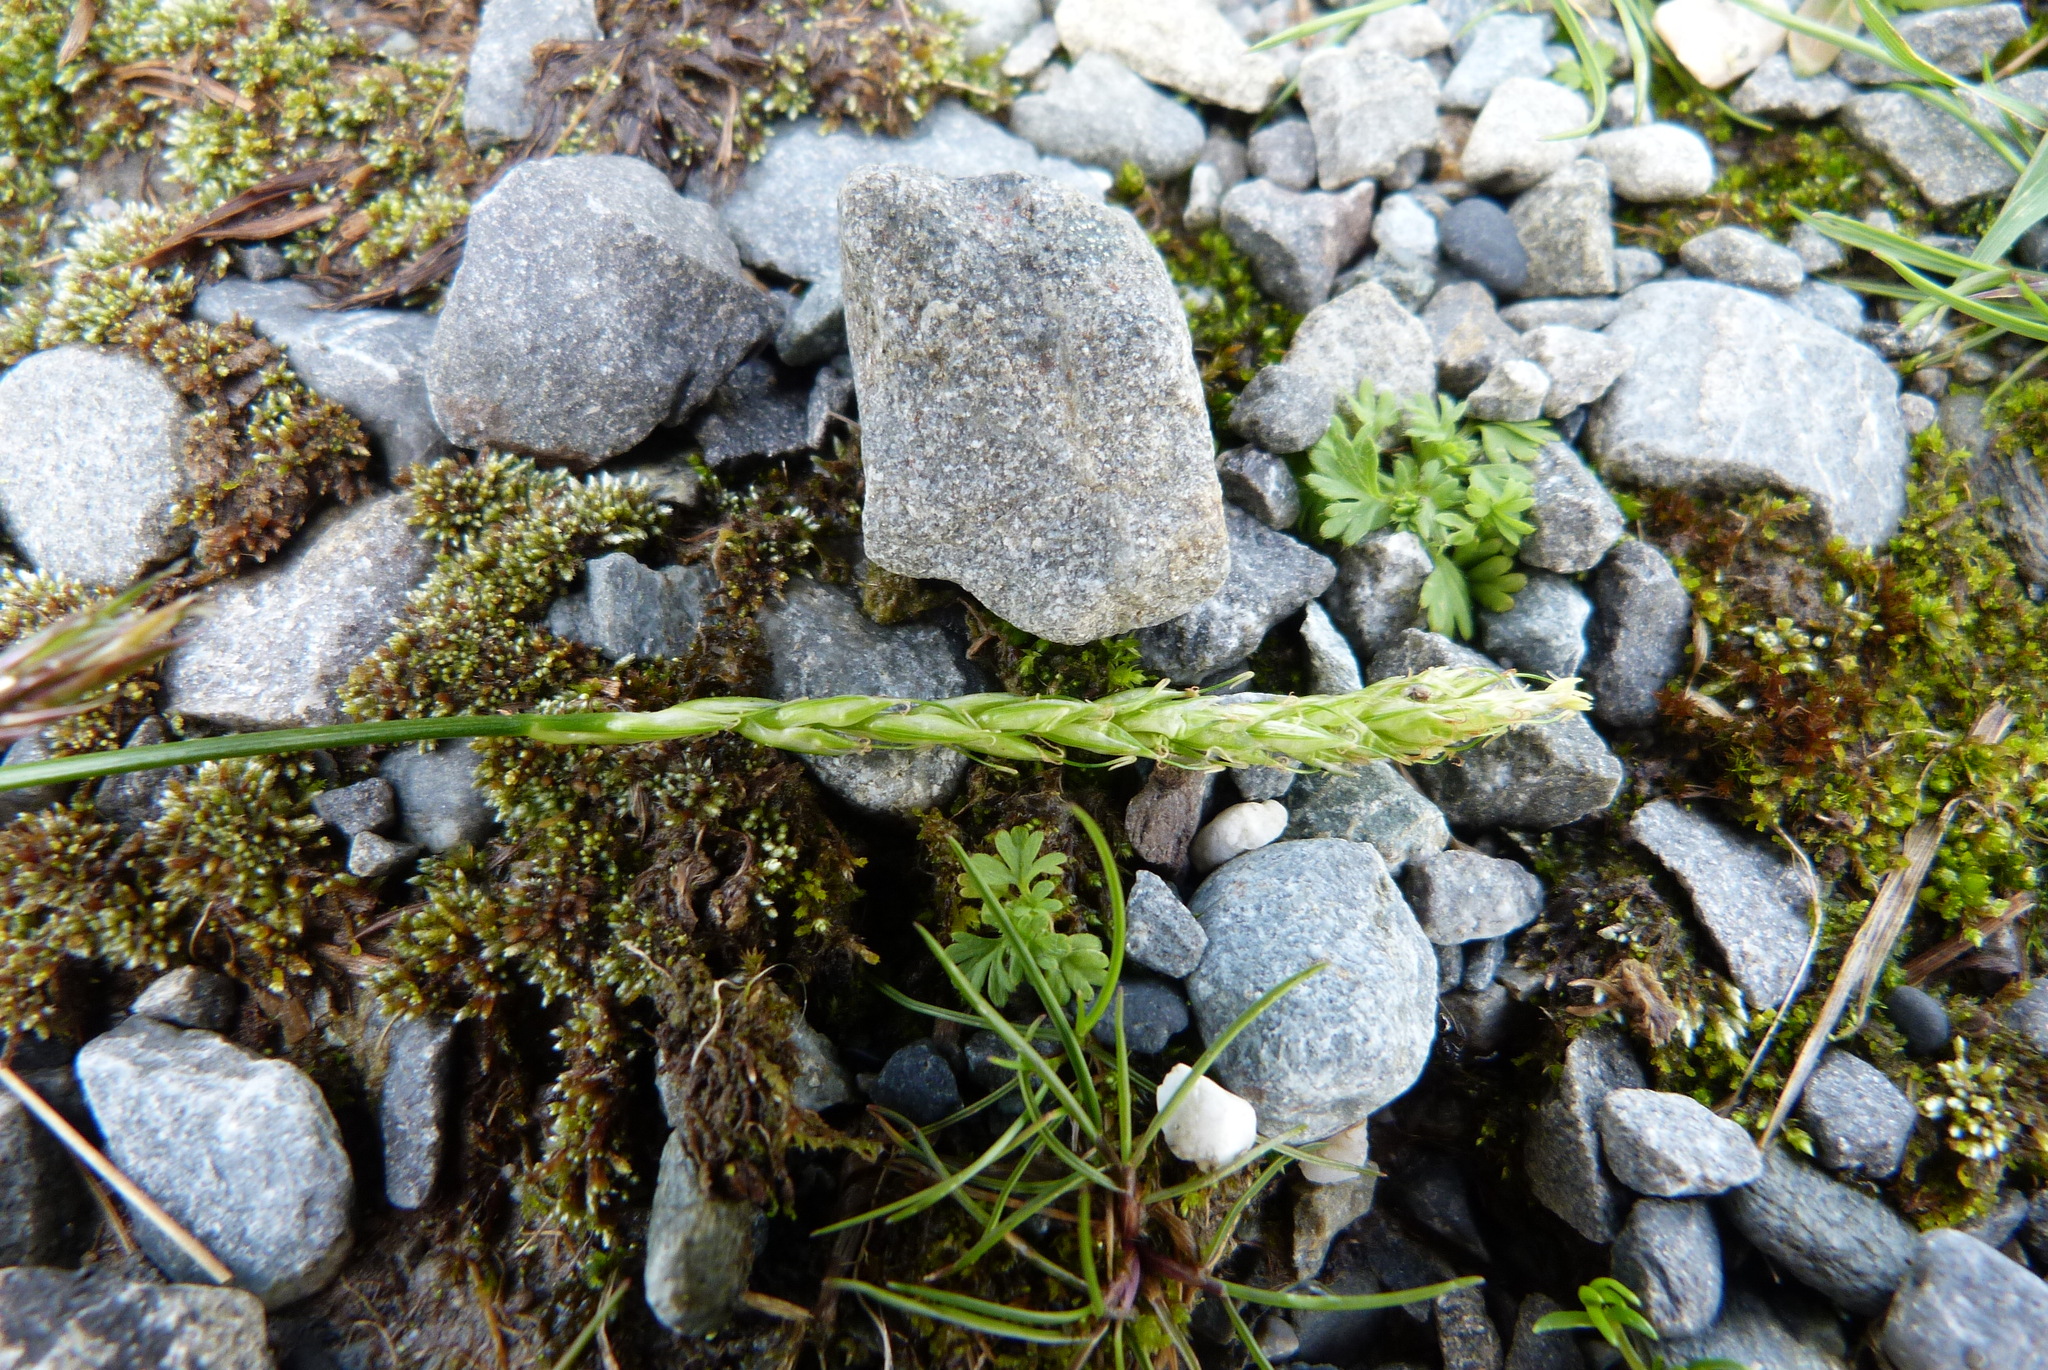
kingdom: Plantae
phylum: Tracheophyta
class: Liliopsida
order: Poales
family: Cyperaceae
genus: Carex
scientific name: Carex horizontalis
